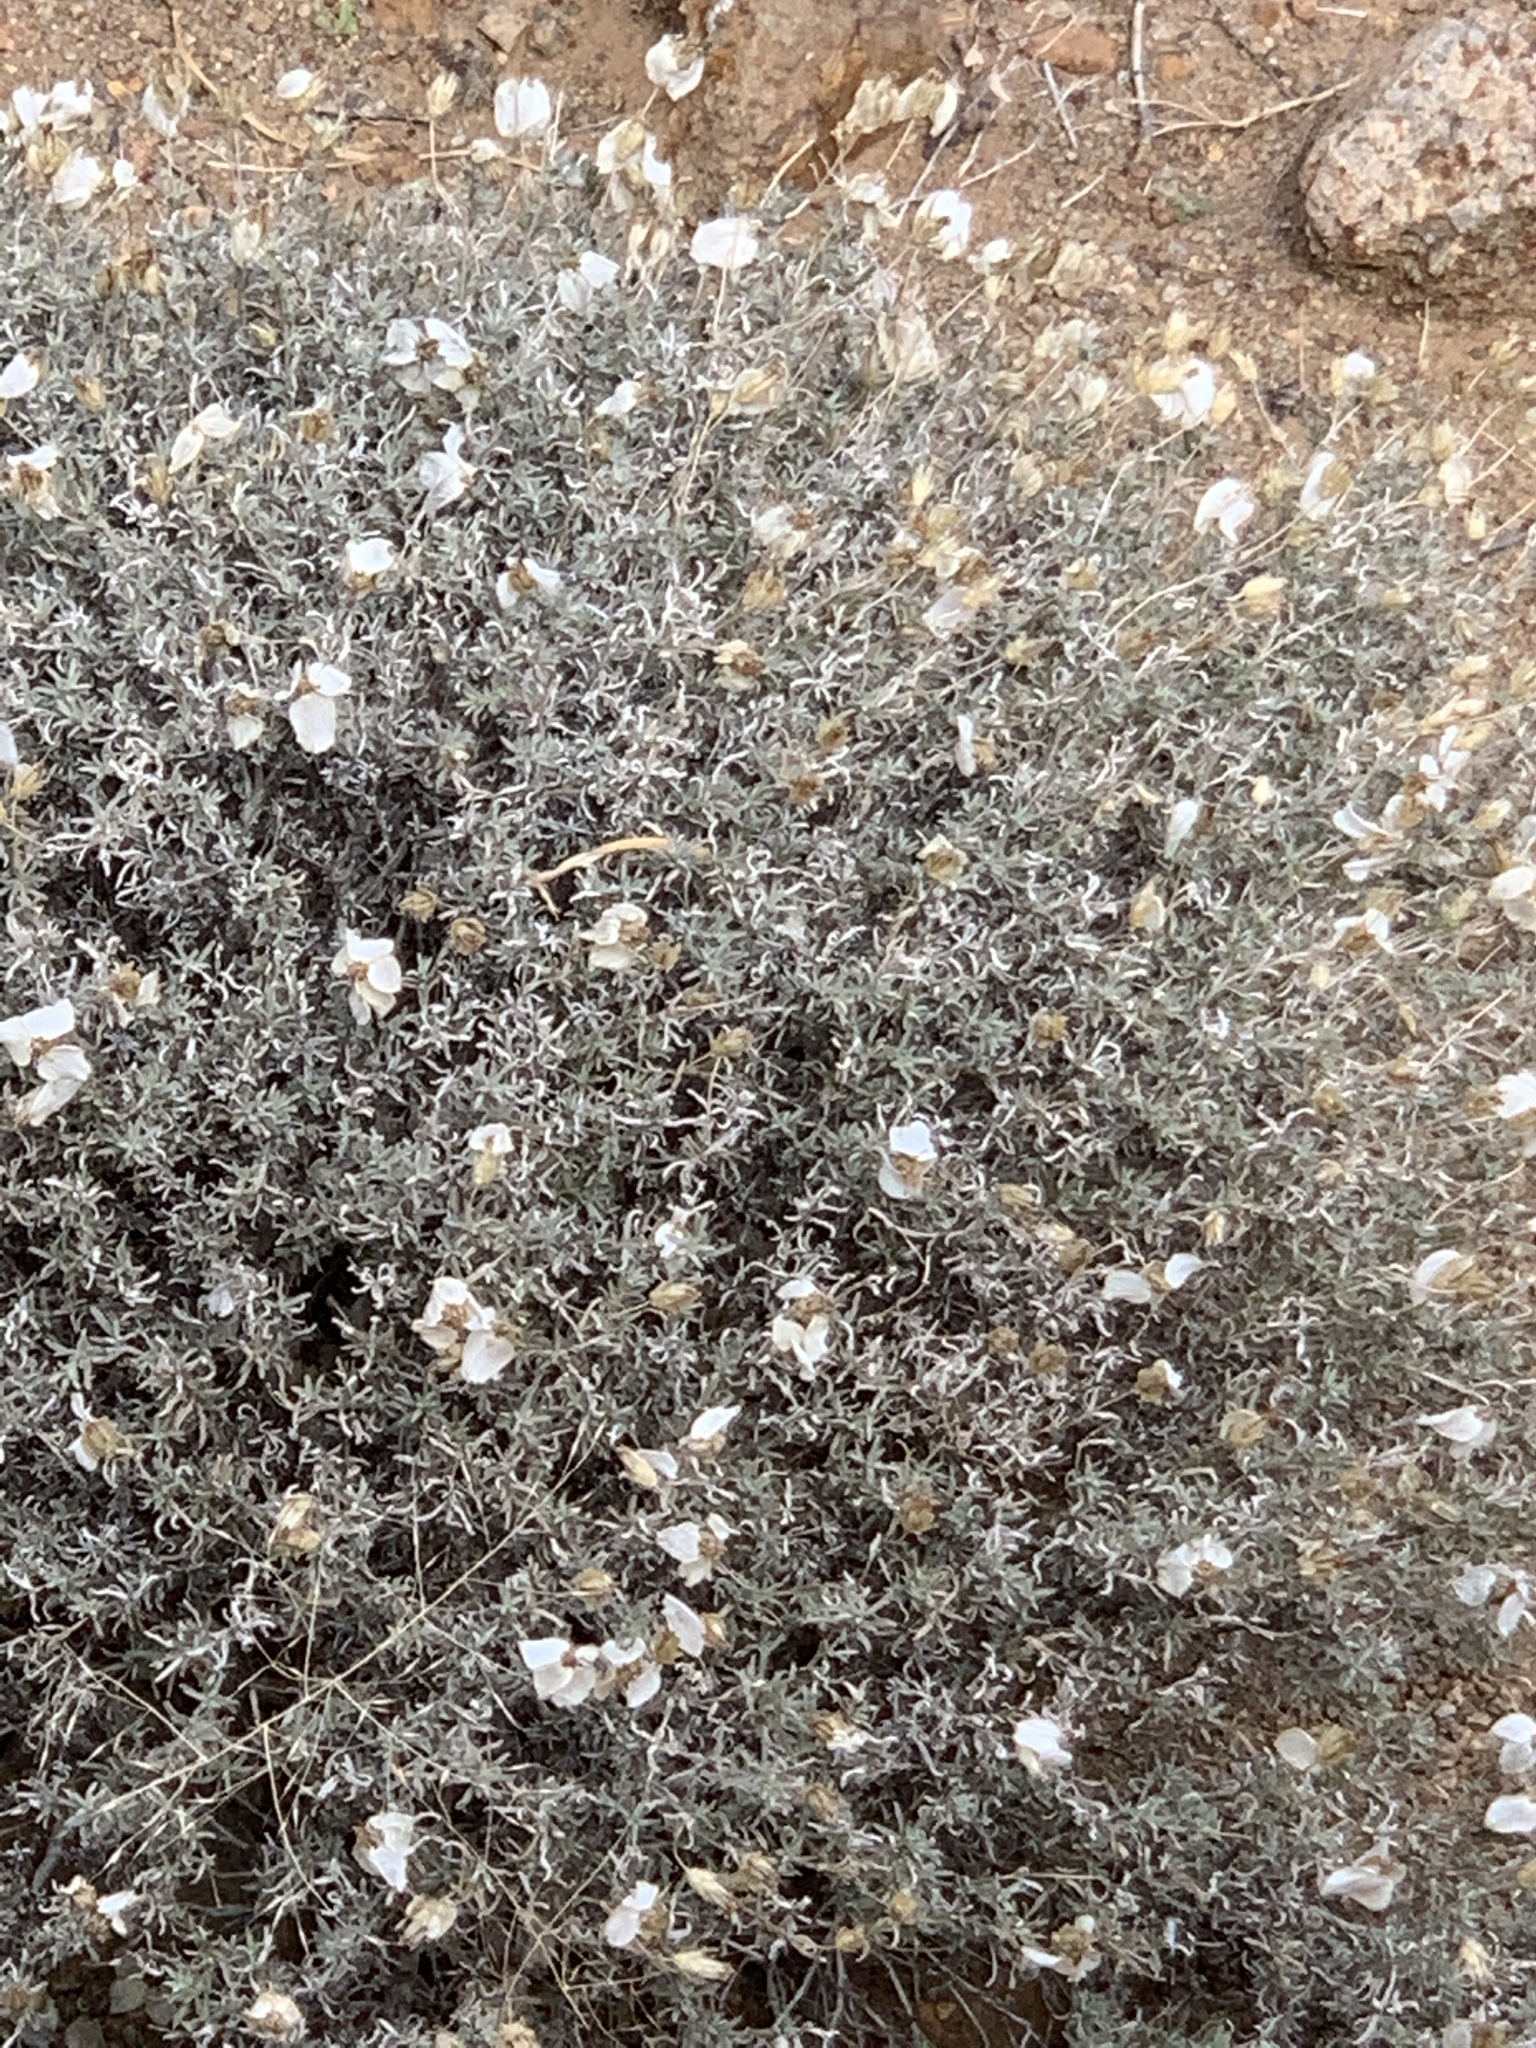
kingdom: Plantae
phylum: Tracheophyta
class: Magnoliopsida
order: Asterales
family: Asteraceae
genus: Zinnia
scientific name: Zinnia acerosa
